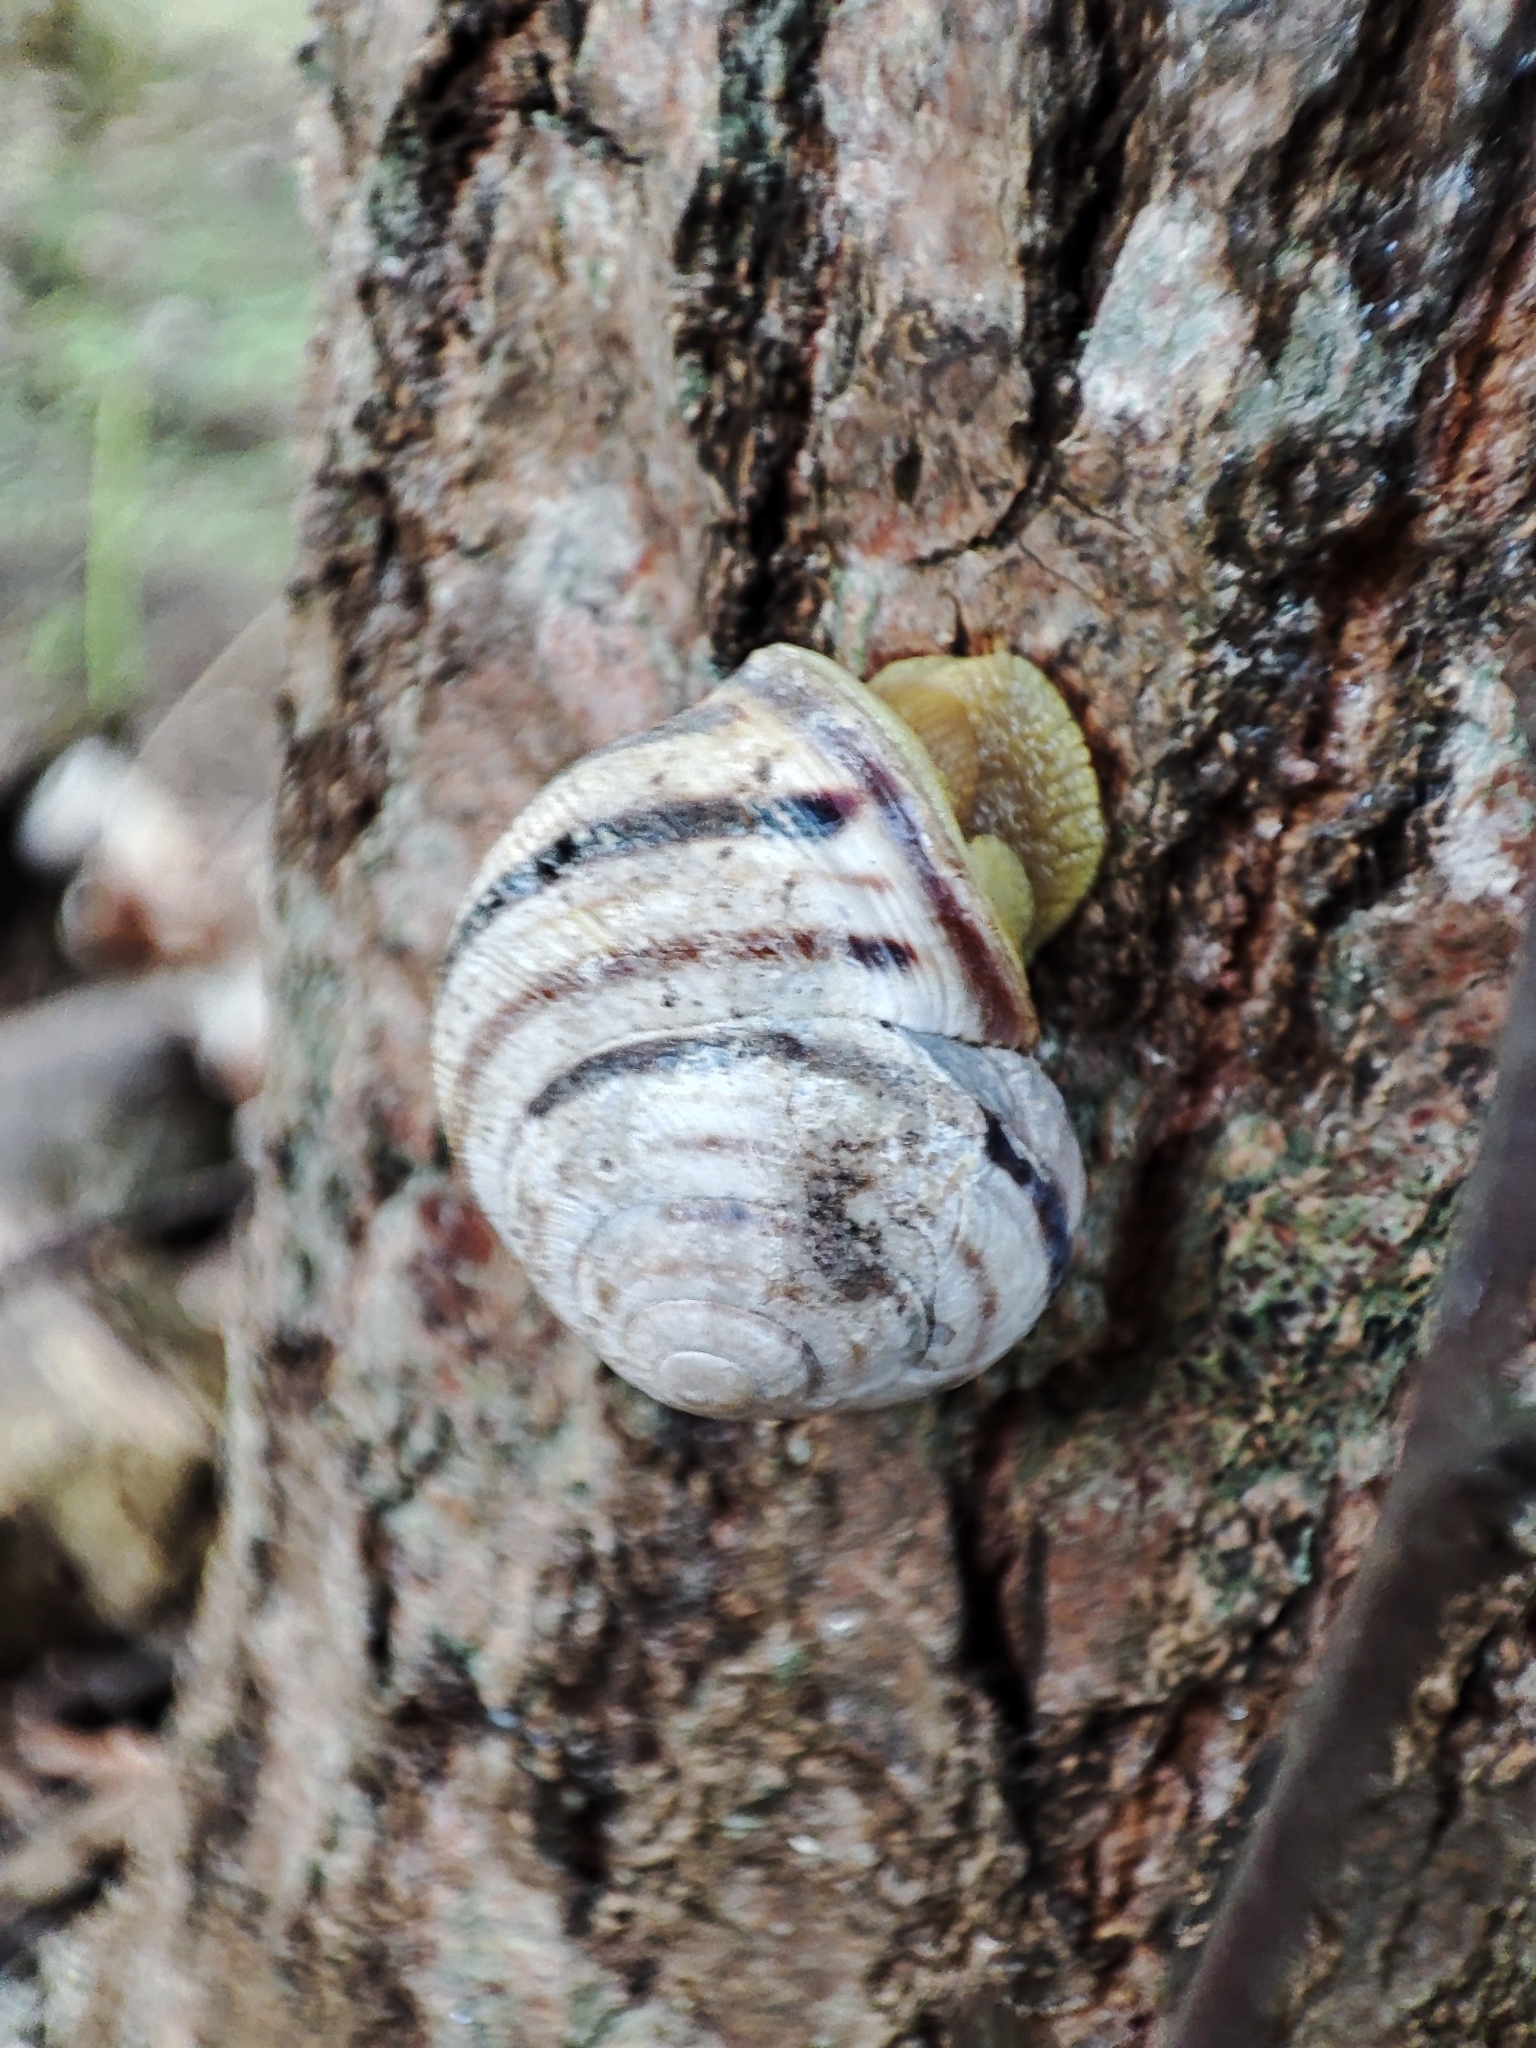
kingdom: Animalia
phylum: Mollusca
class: Gastropoda
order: Stylommatophora
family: Helicidae
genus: Caucasotachea
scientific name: Caucasotachea vindobonensis
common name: European helicid land snail
